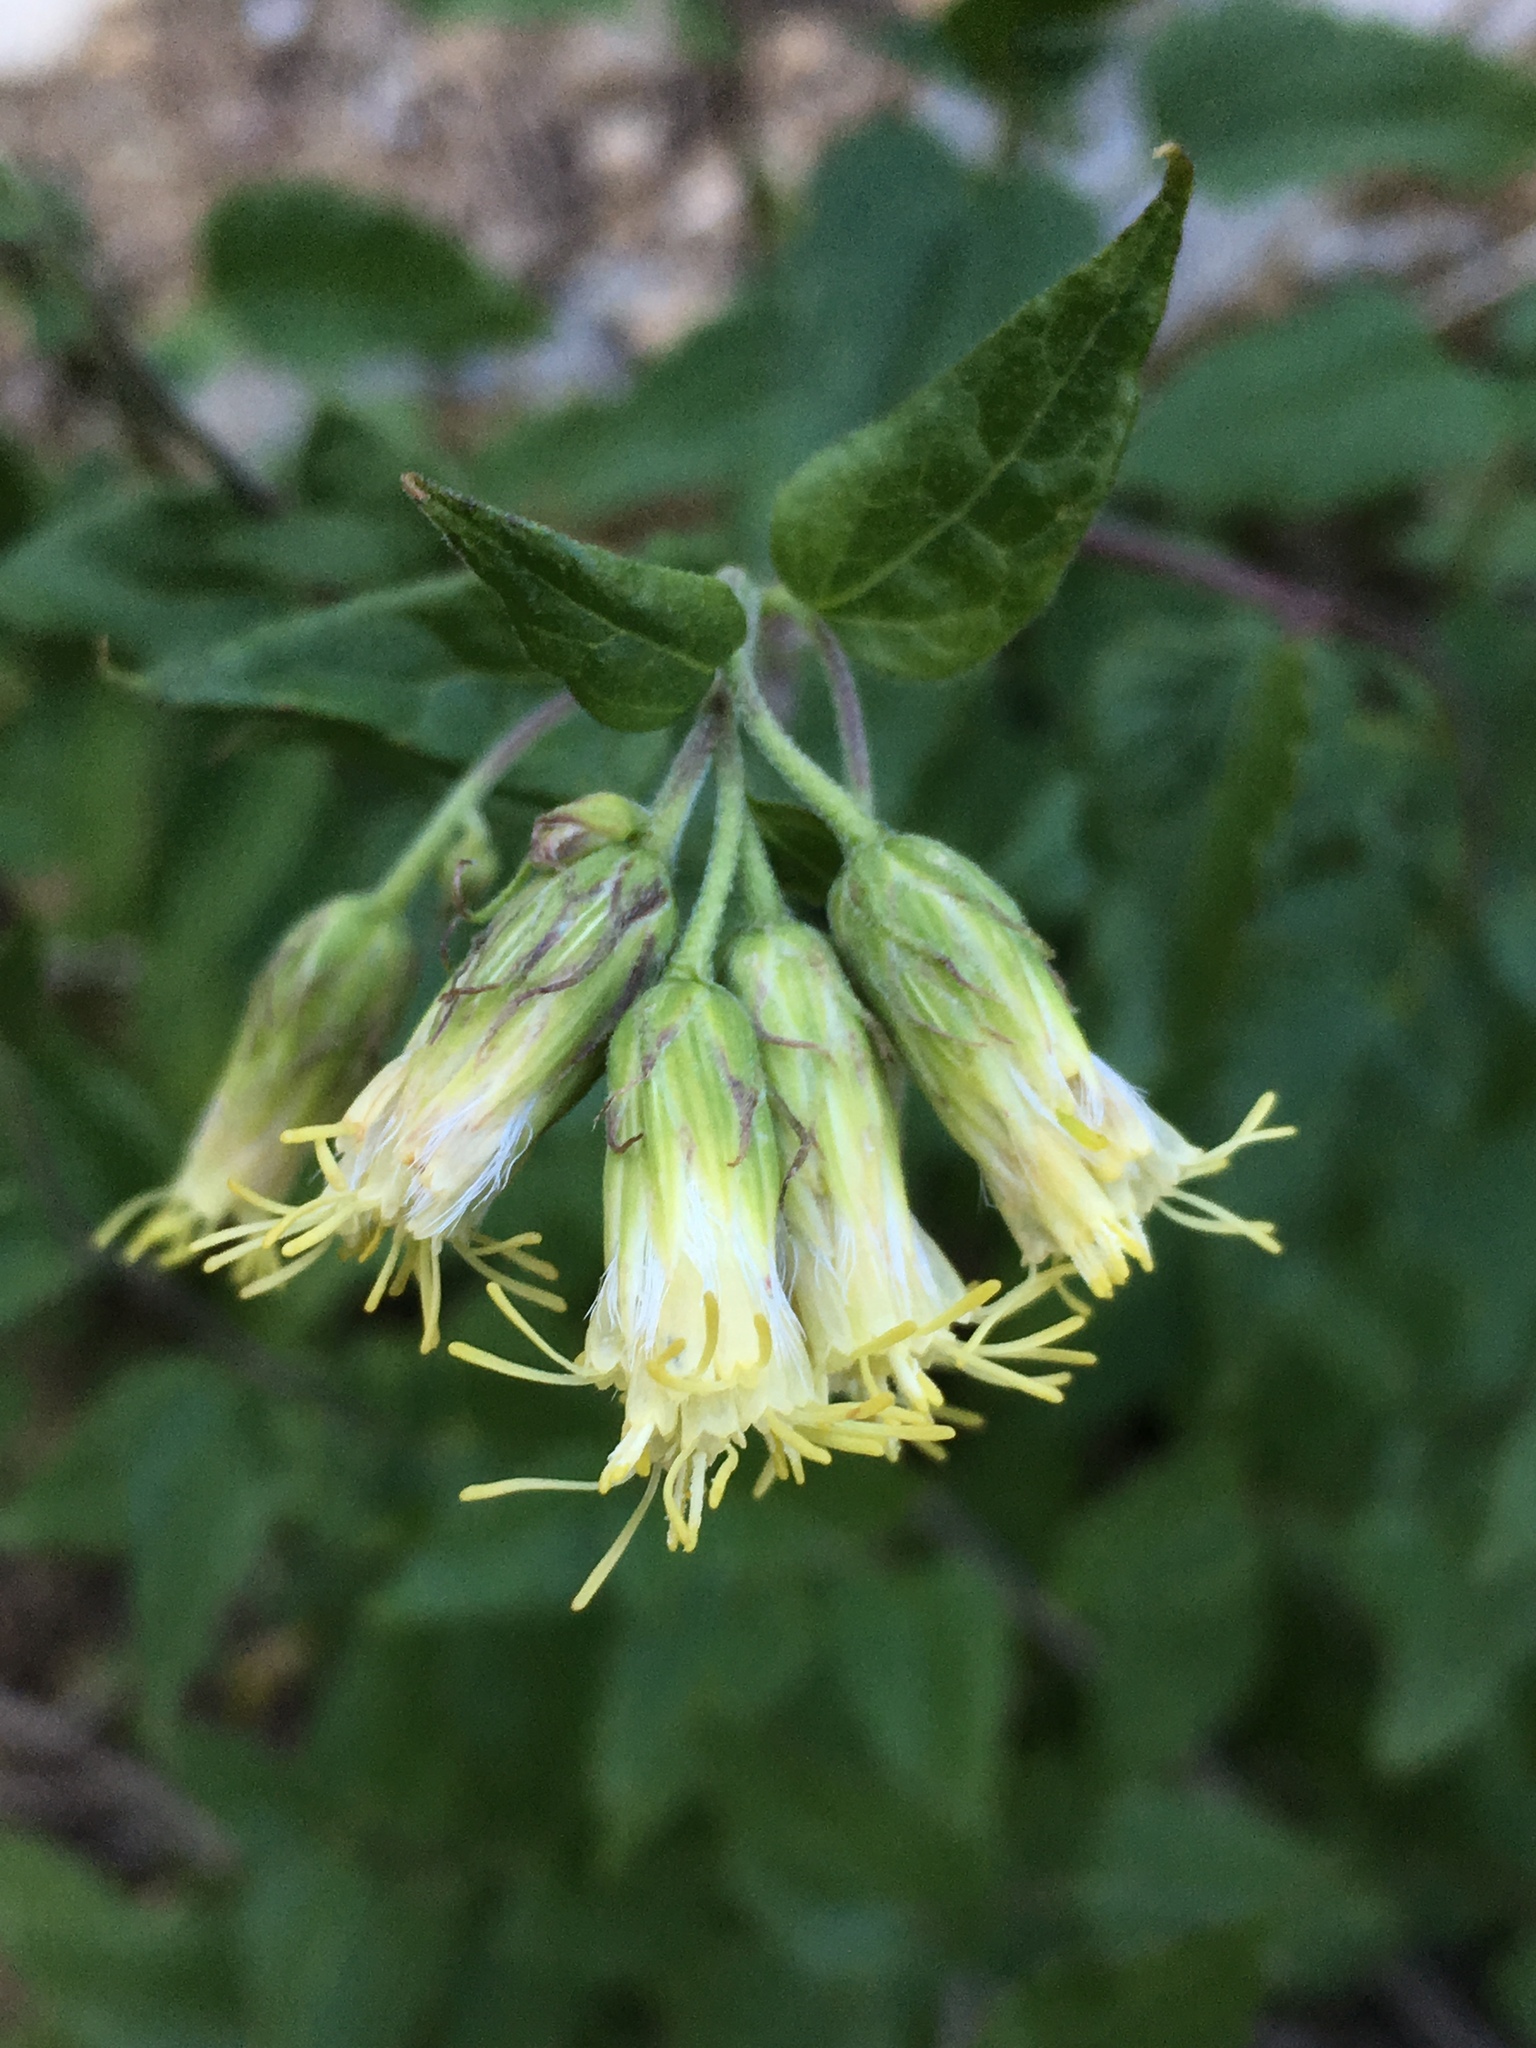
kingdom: Plantae
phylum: Tracheophyta
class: Magnoliopsida
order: Asterales
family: Asteraceae
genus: Brickellia
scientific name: Brickellia grandiflora
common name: Large-flowered brickellia
